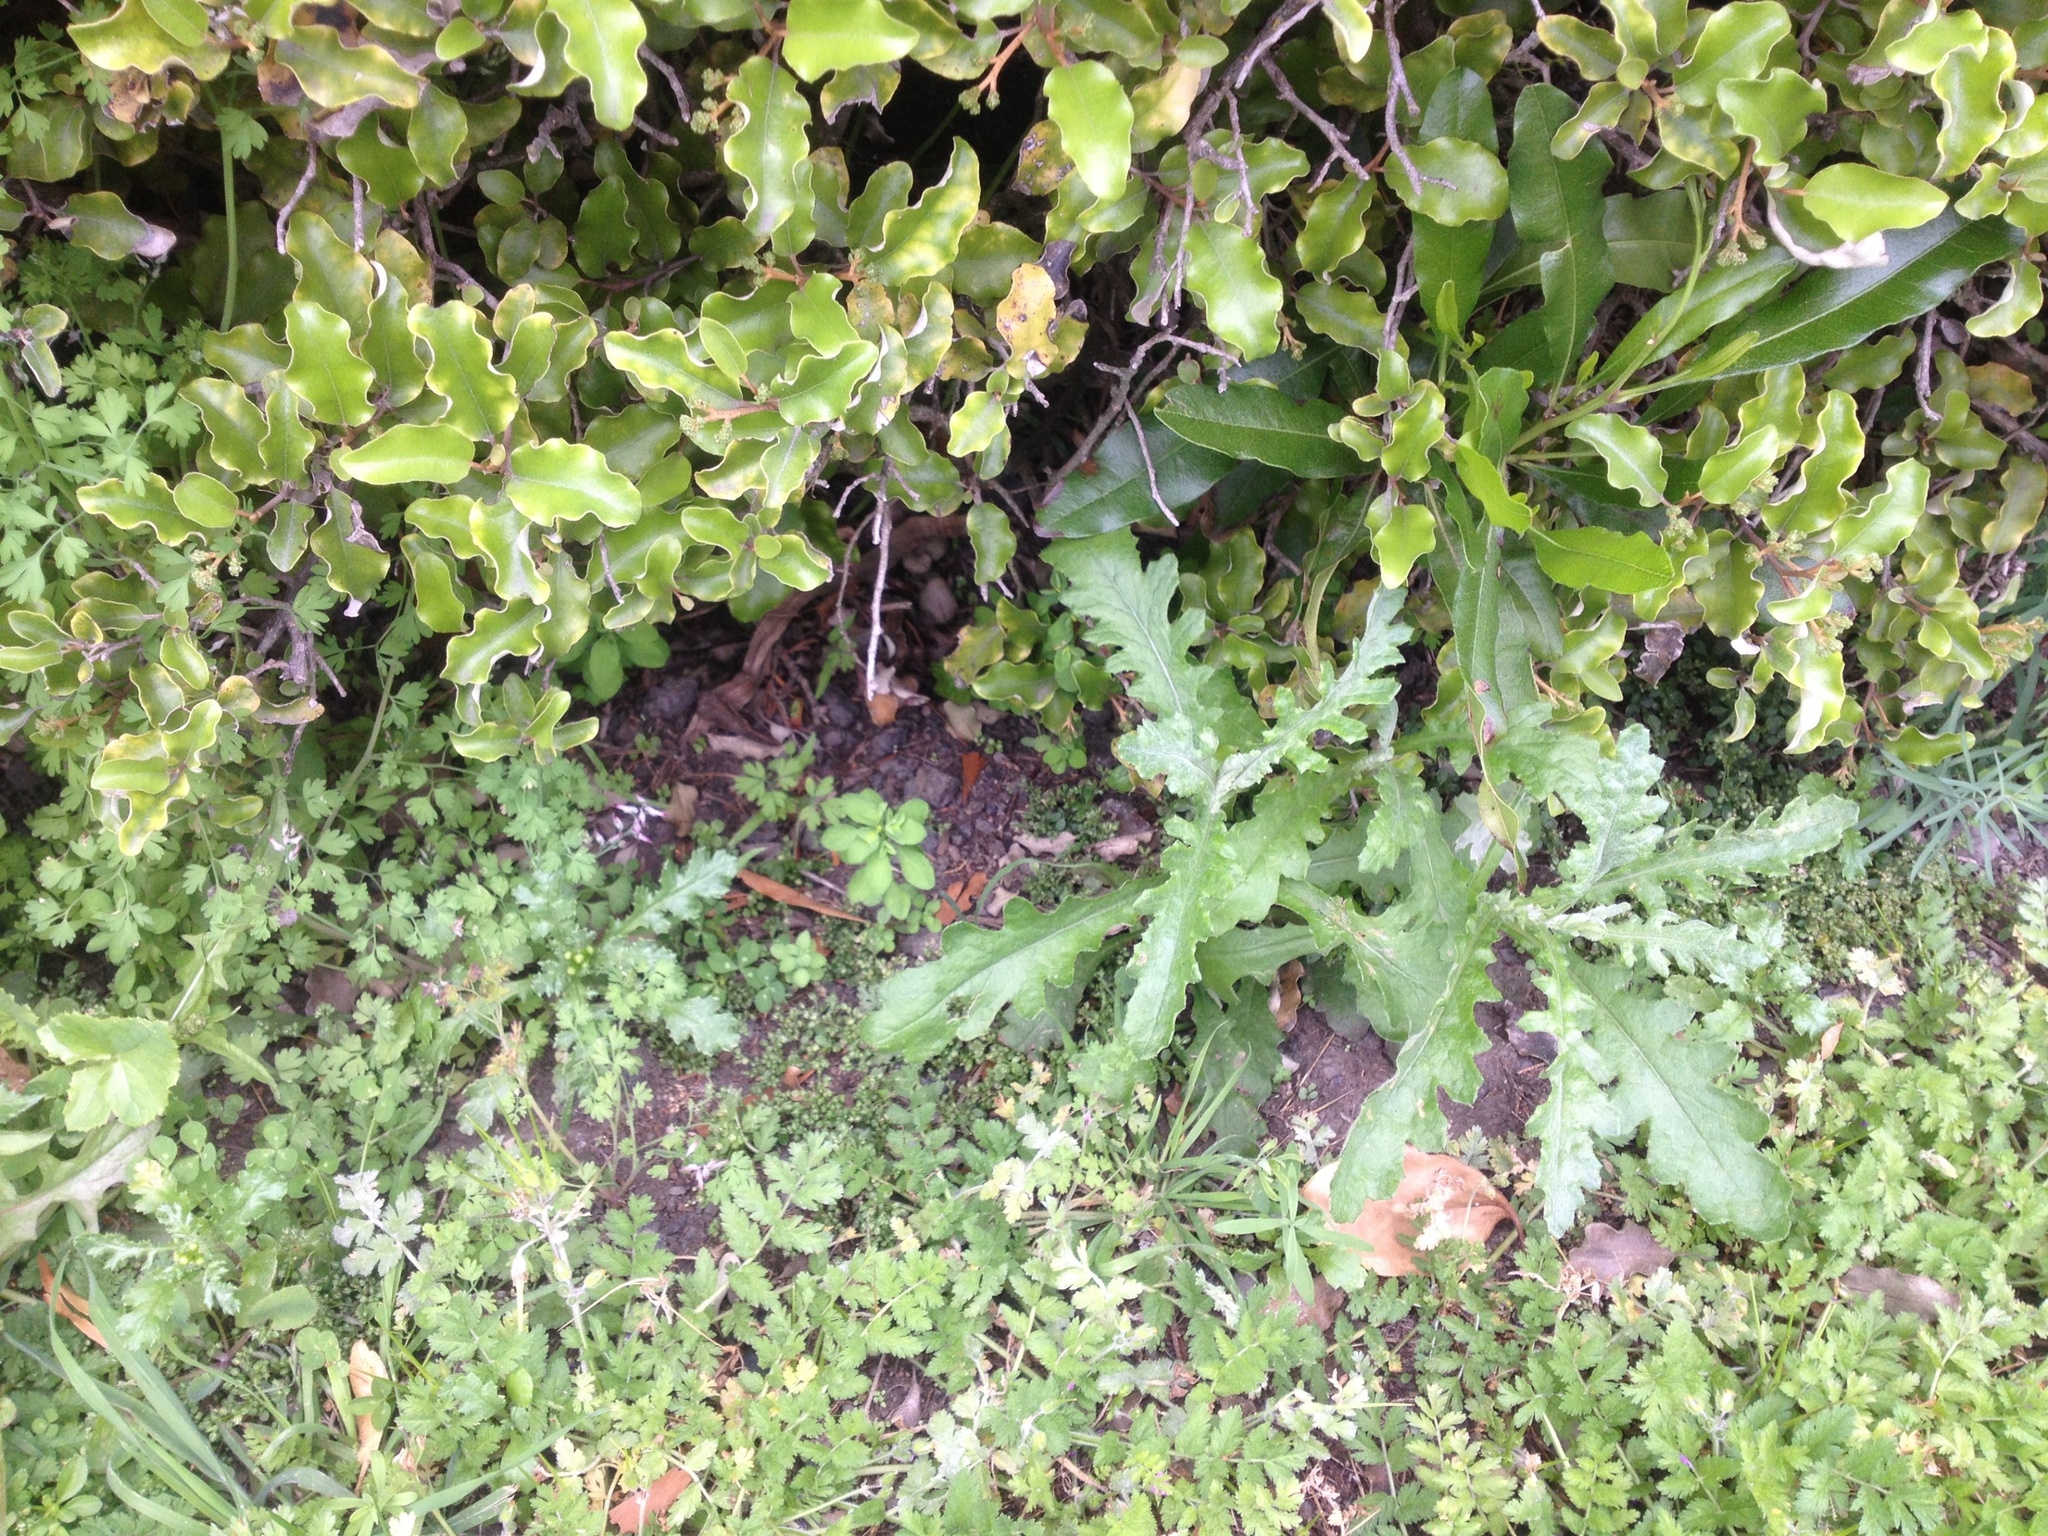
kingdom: Plantae
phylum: Tracheophyta
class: Magnoliopsida
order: Asterales
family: Asteraceae
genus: Senecio
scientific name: Senecio vulgaris
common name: Old-man-in-the-spring
